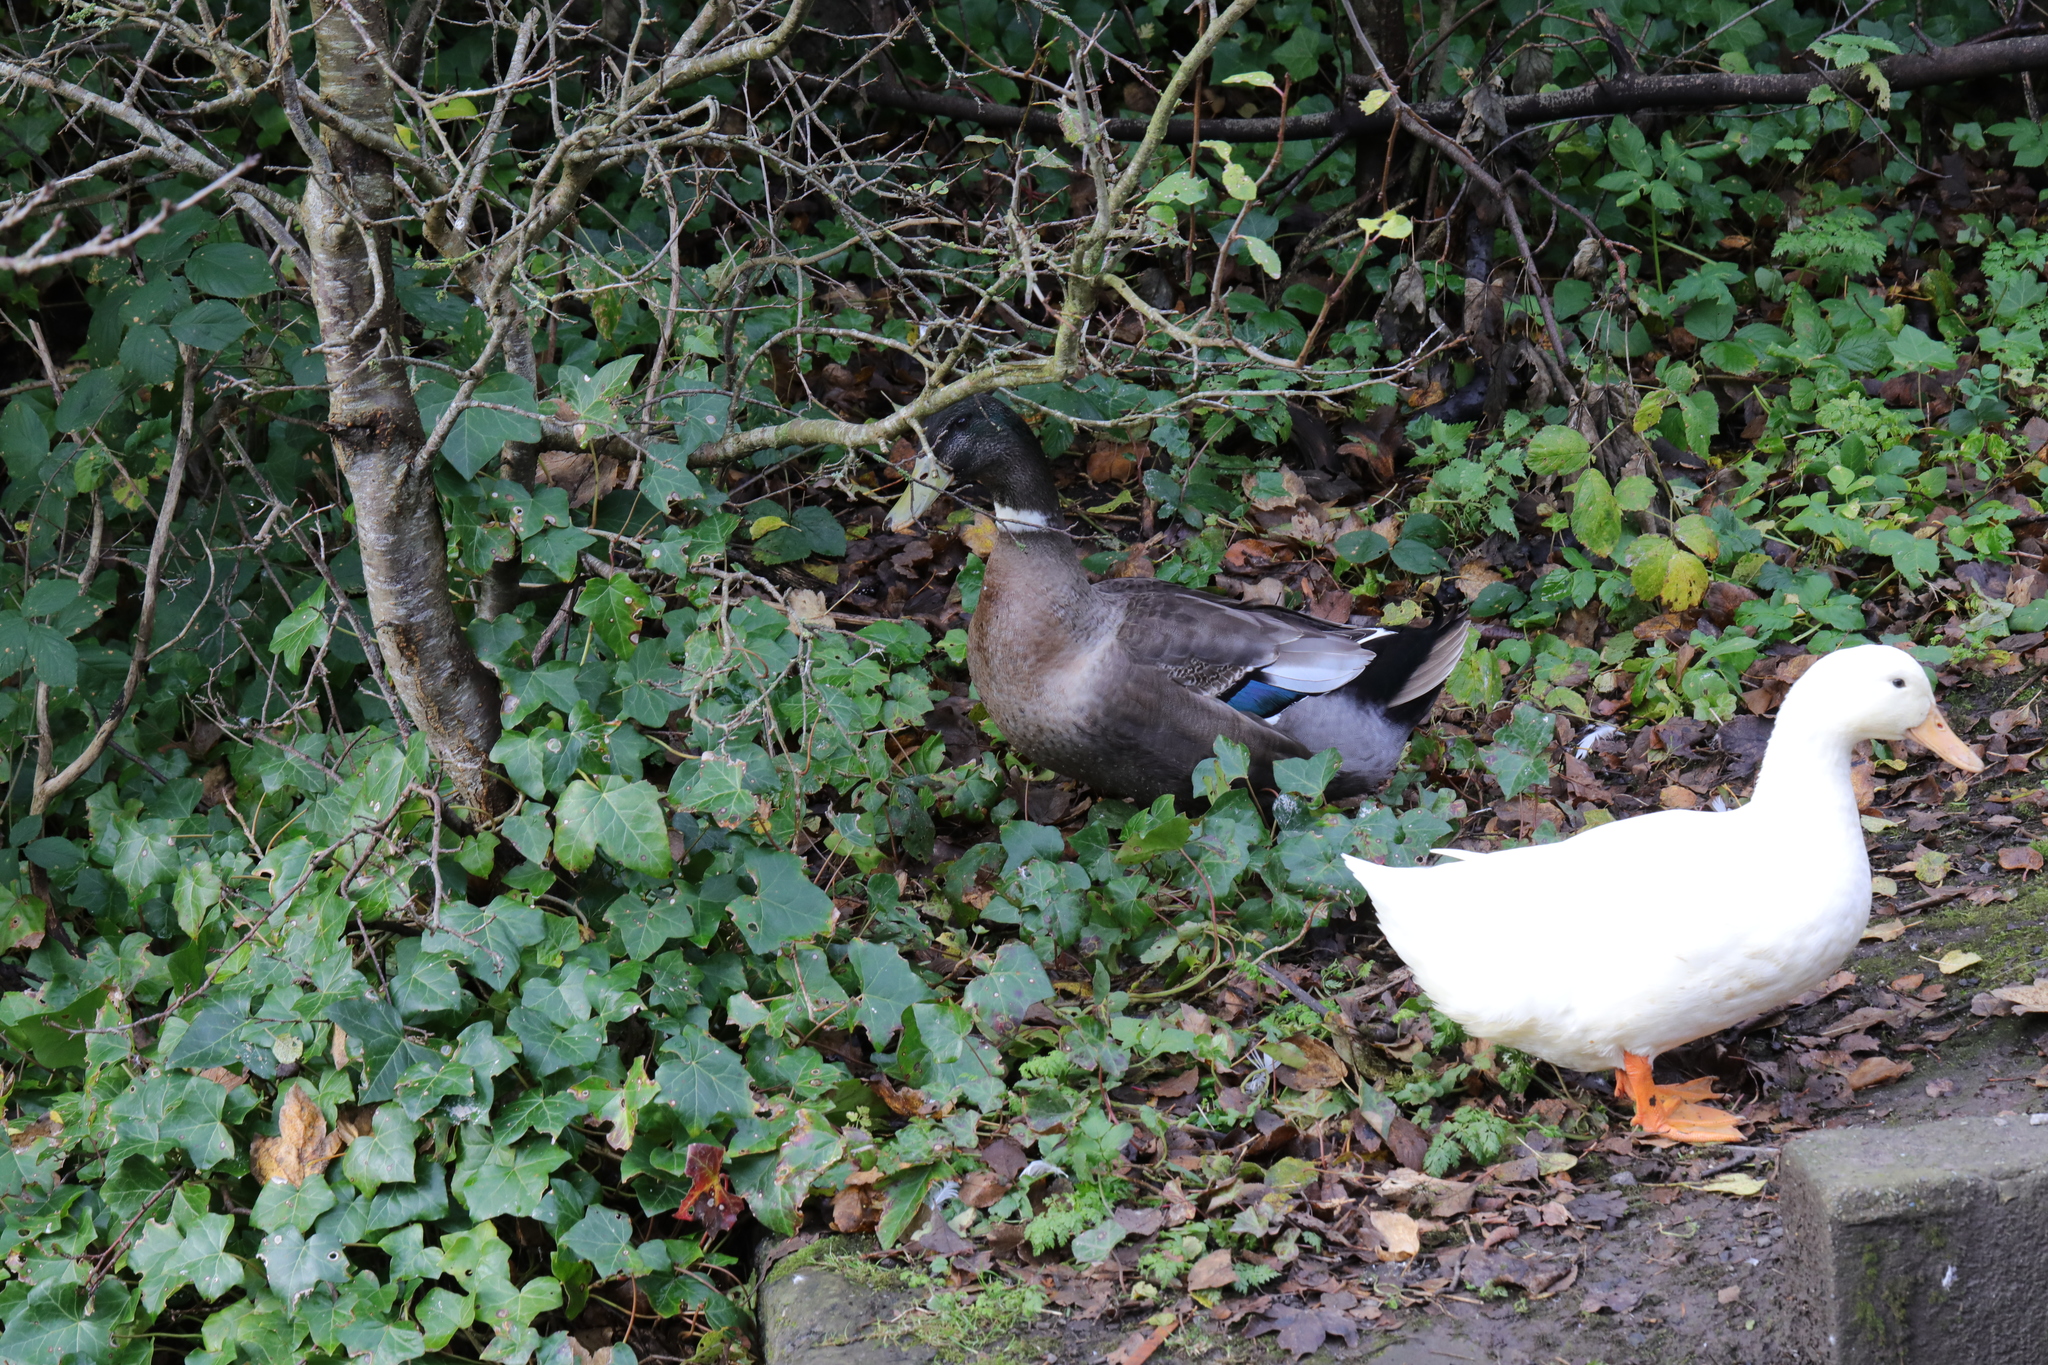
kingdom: Animalia
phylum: Chordata
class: Aves
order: Anseriformes
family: Anatidae
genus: Anas
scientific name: Anas platyrhynchos
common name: Mallard
